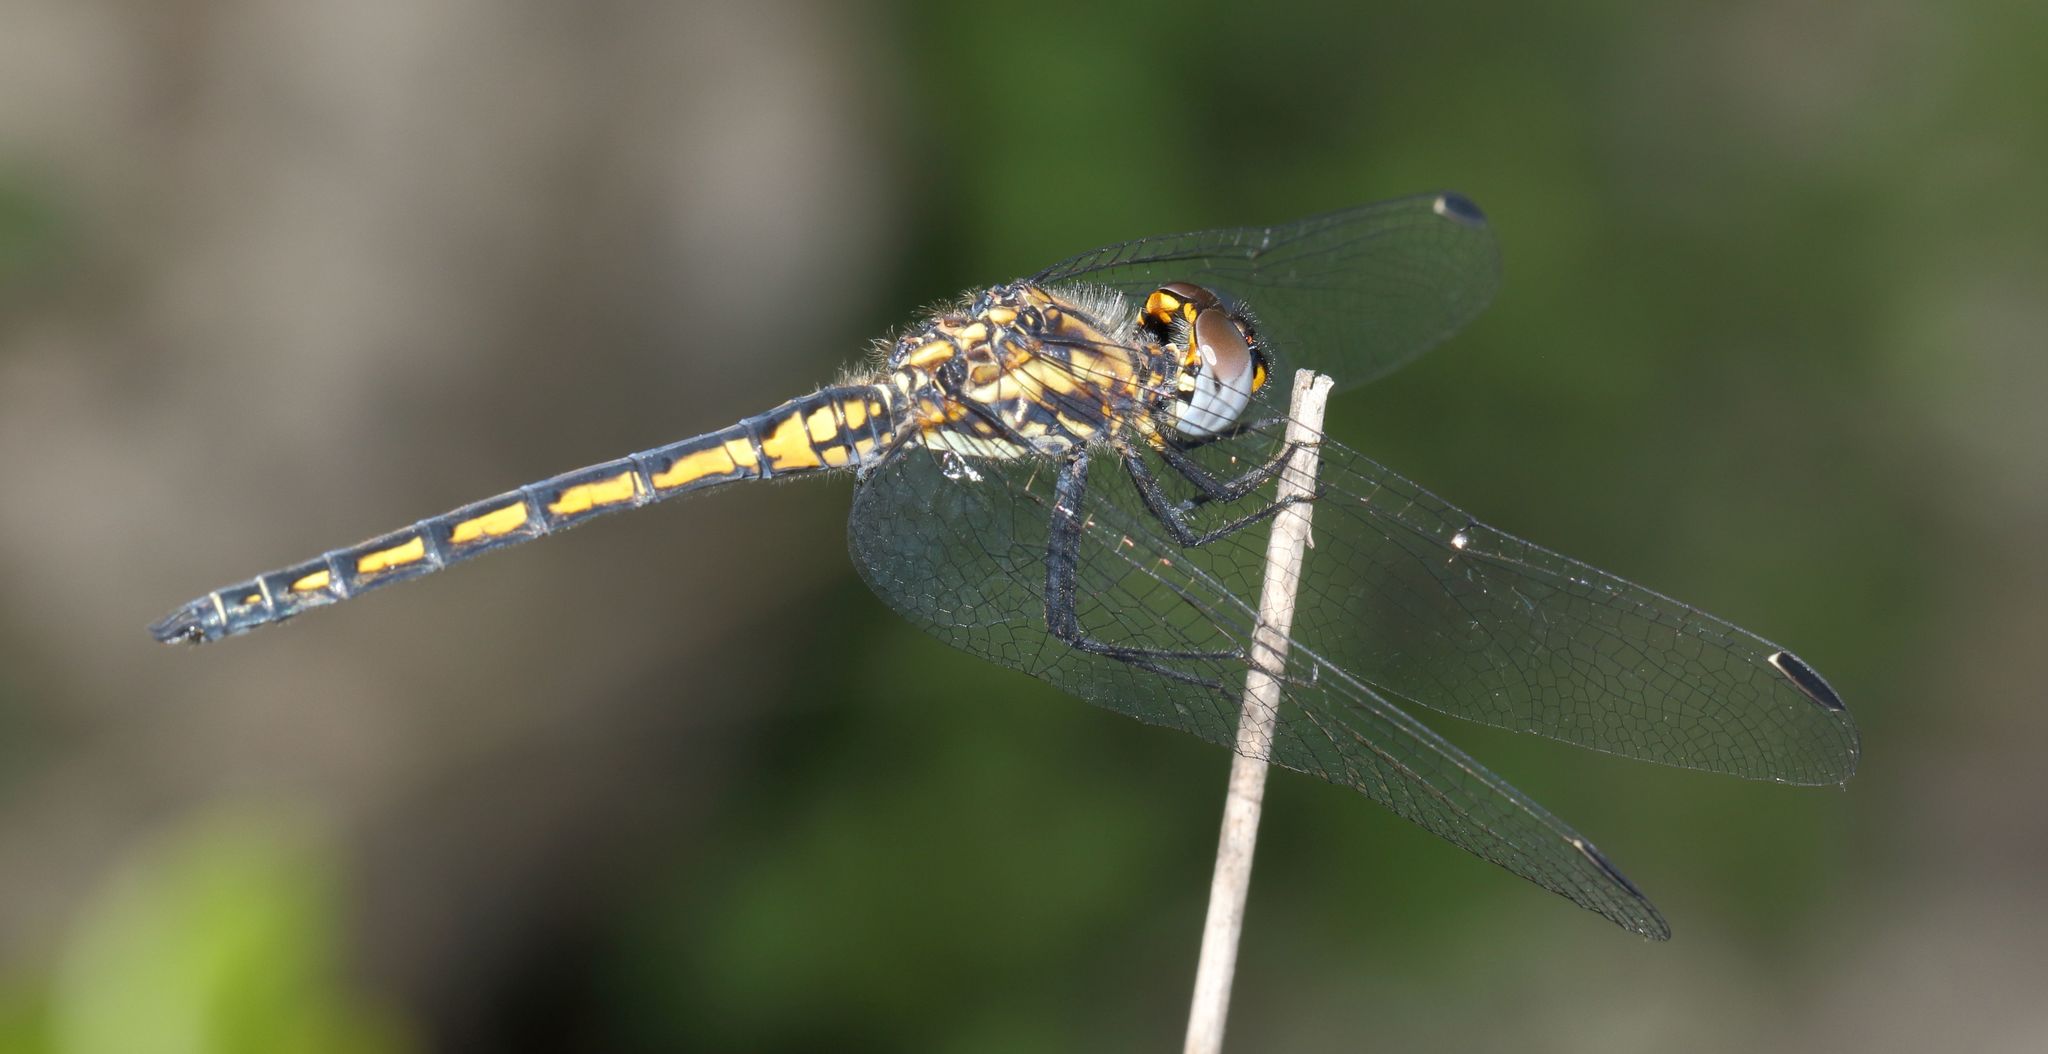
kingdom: Animalia
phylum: Arthropoda
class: Insecta
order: Odonata
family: Libellulidae
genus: Trithemis
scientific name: Trithemis furva
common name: Dark dropwing
